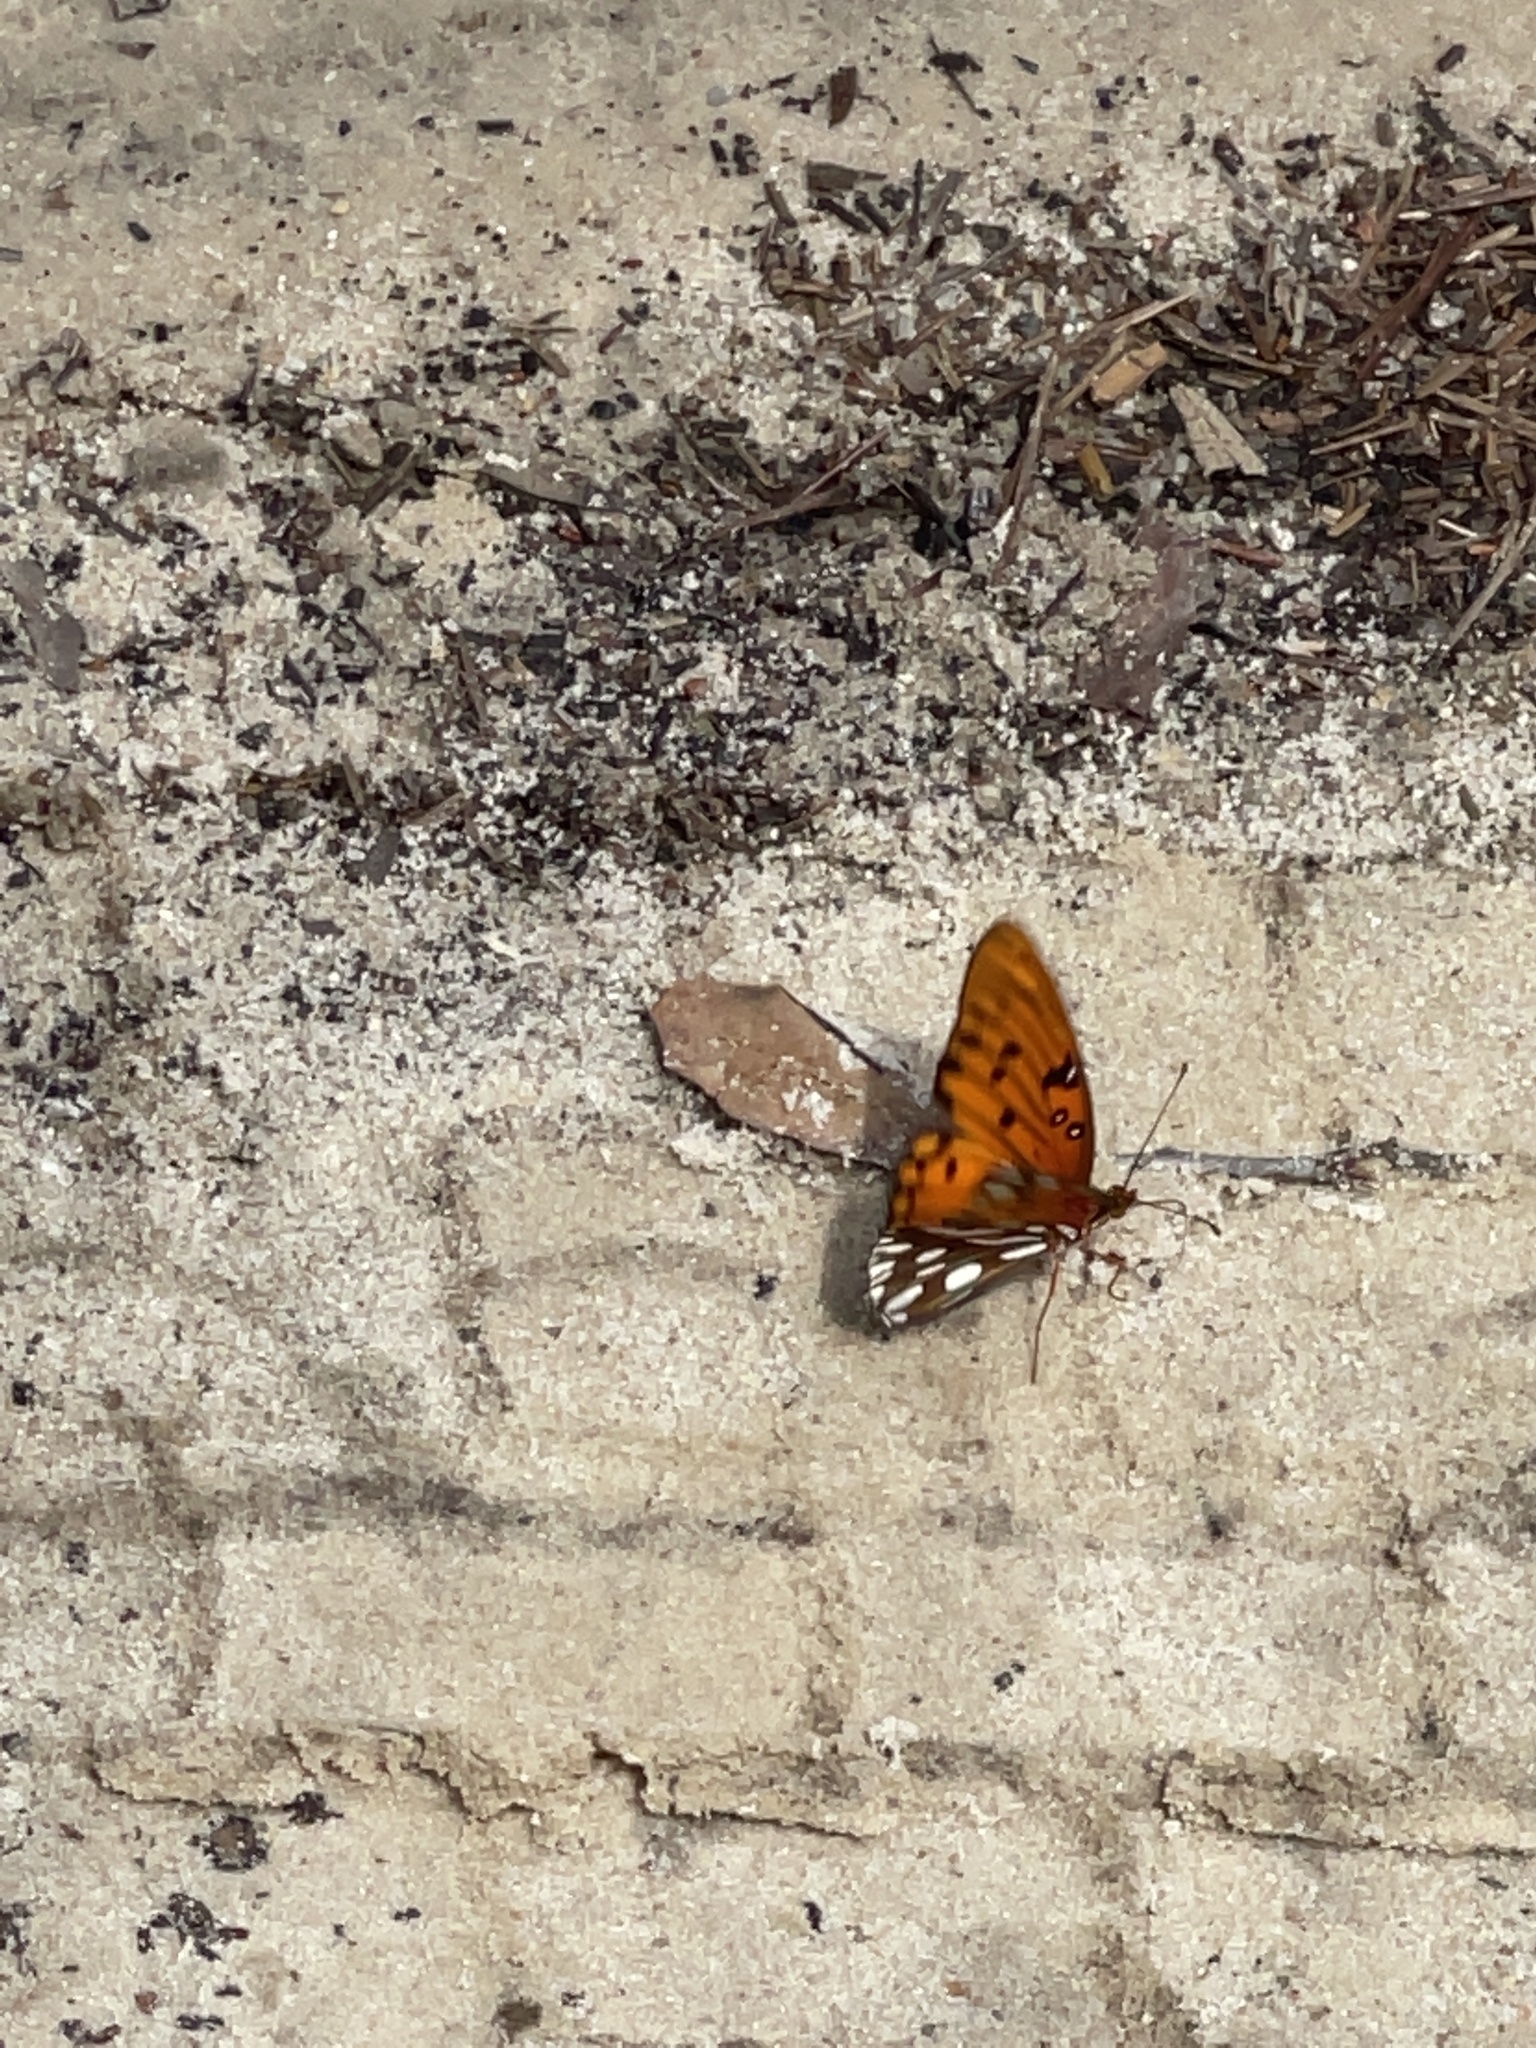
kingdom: Animalia
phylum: Arthropoda
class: Insecta
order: Lepidoptera
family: Nymphalidae
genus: Dione
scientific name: Dione vanillae
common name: Gulf fritillary
